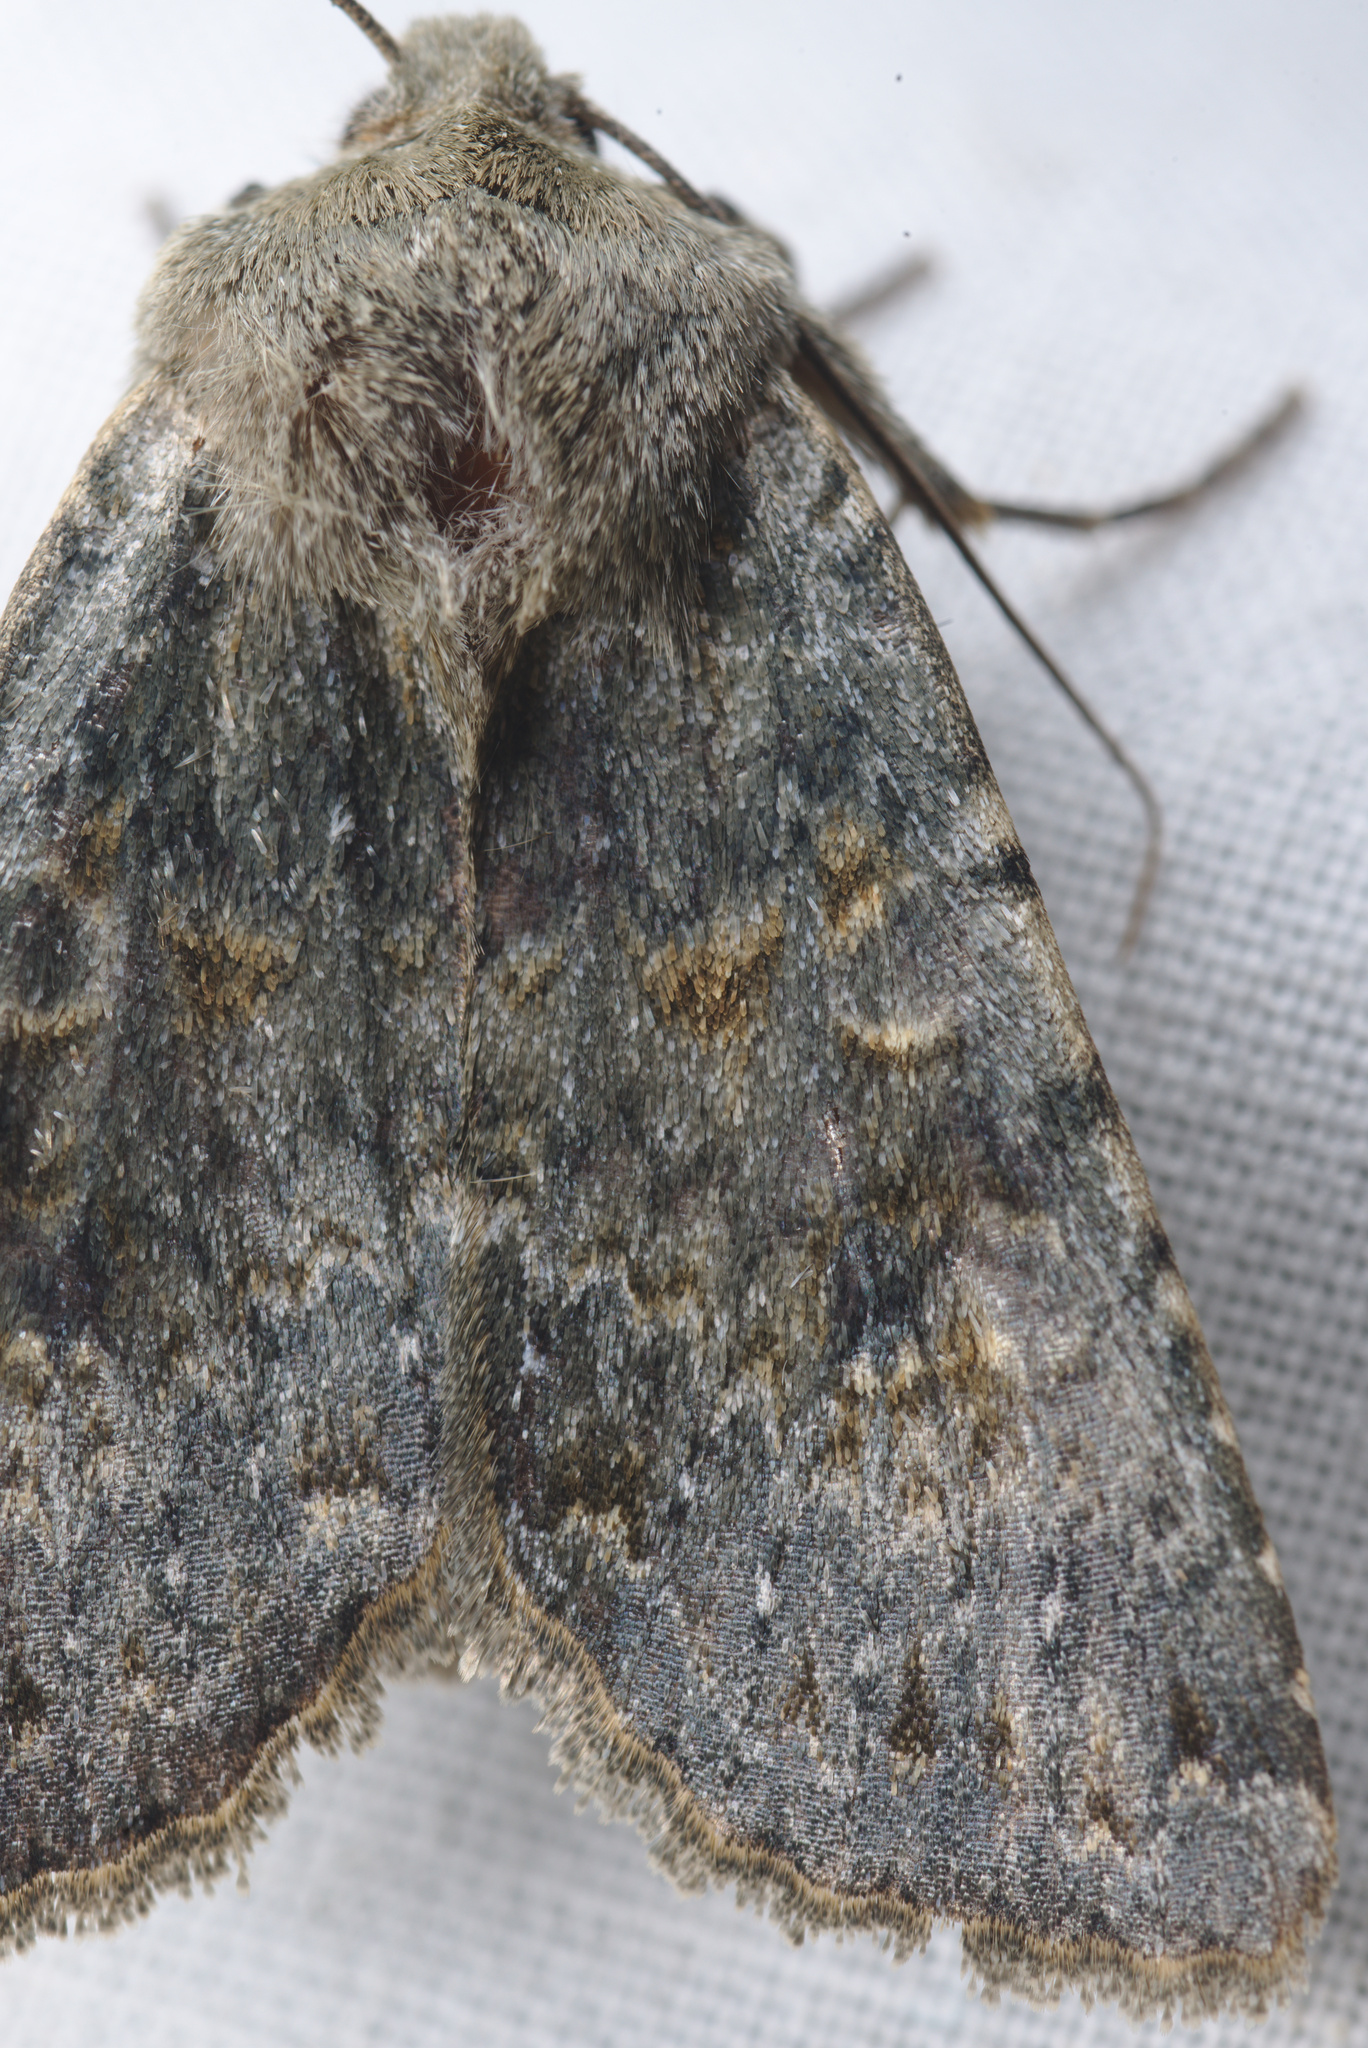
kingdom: Animalia
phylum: Arthropoda
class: Insecta
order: Lepidoptera
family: Noctuidae
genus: Ichneutica
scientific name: Ichneutica
